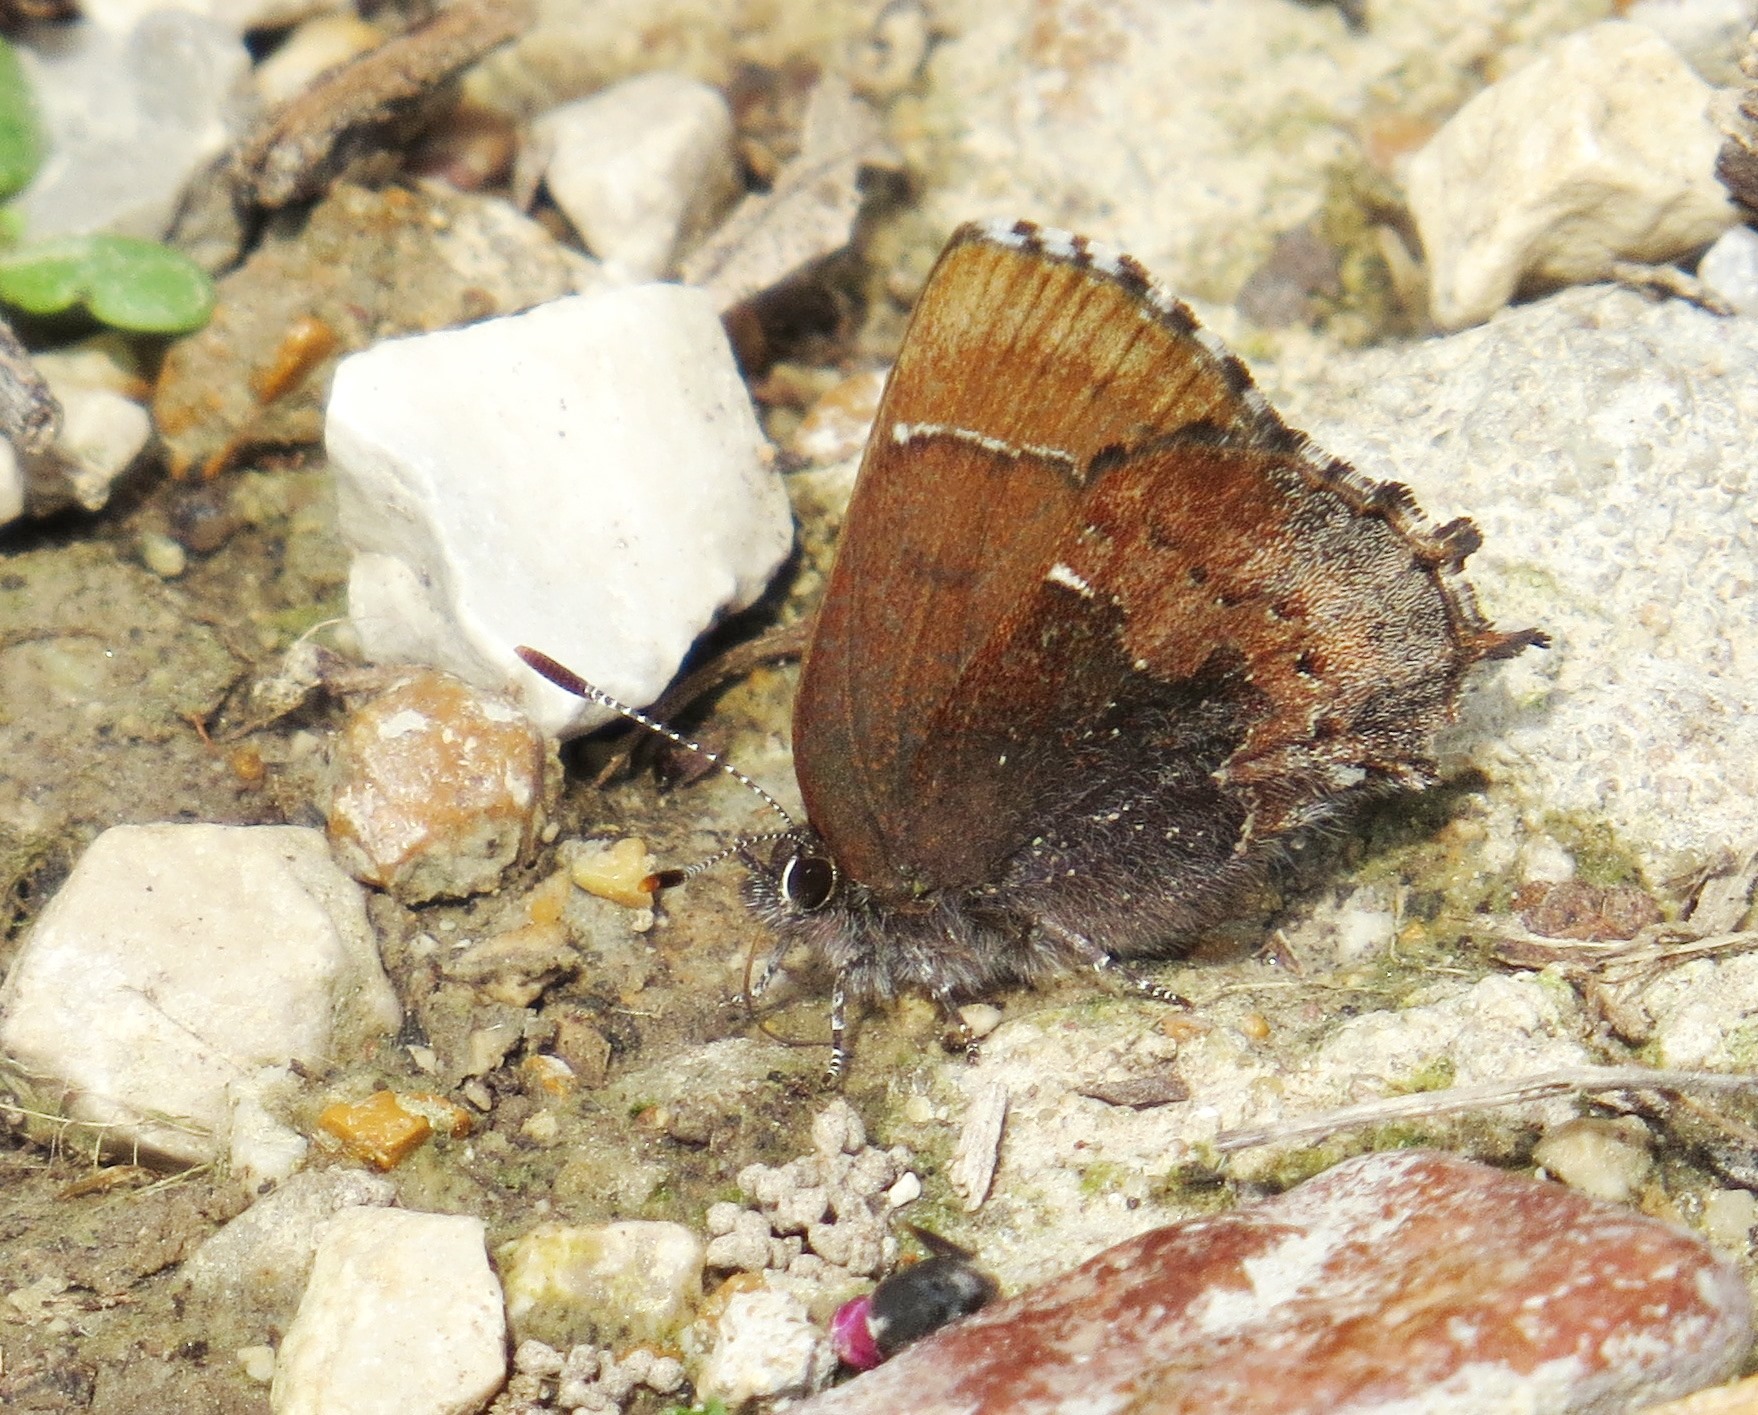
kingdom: Animalia
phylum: Arthropoda
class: Insecta
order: Lepidoptera
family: Lycaenidae
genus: Incisalia
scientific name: Incisalia henrici
